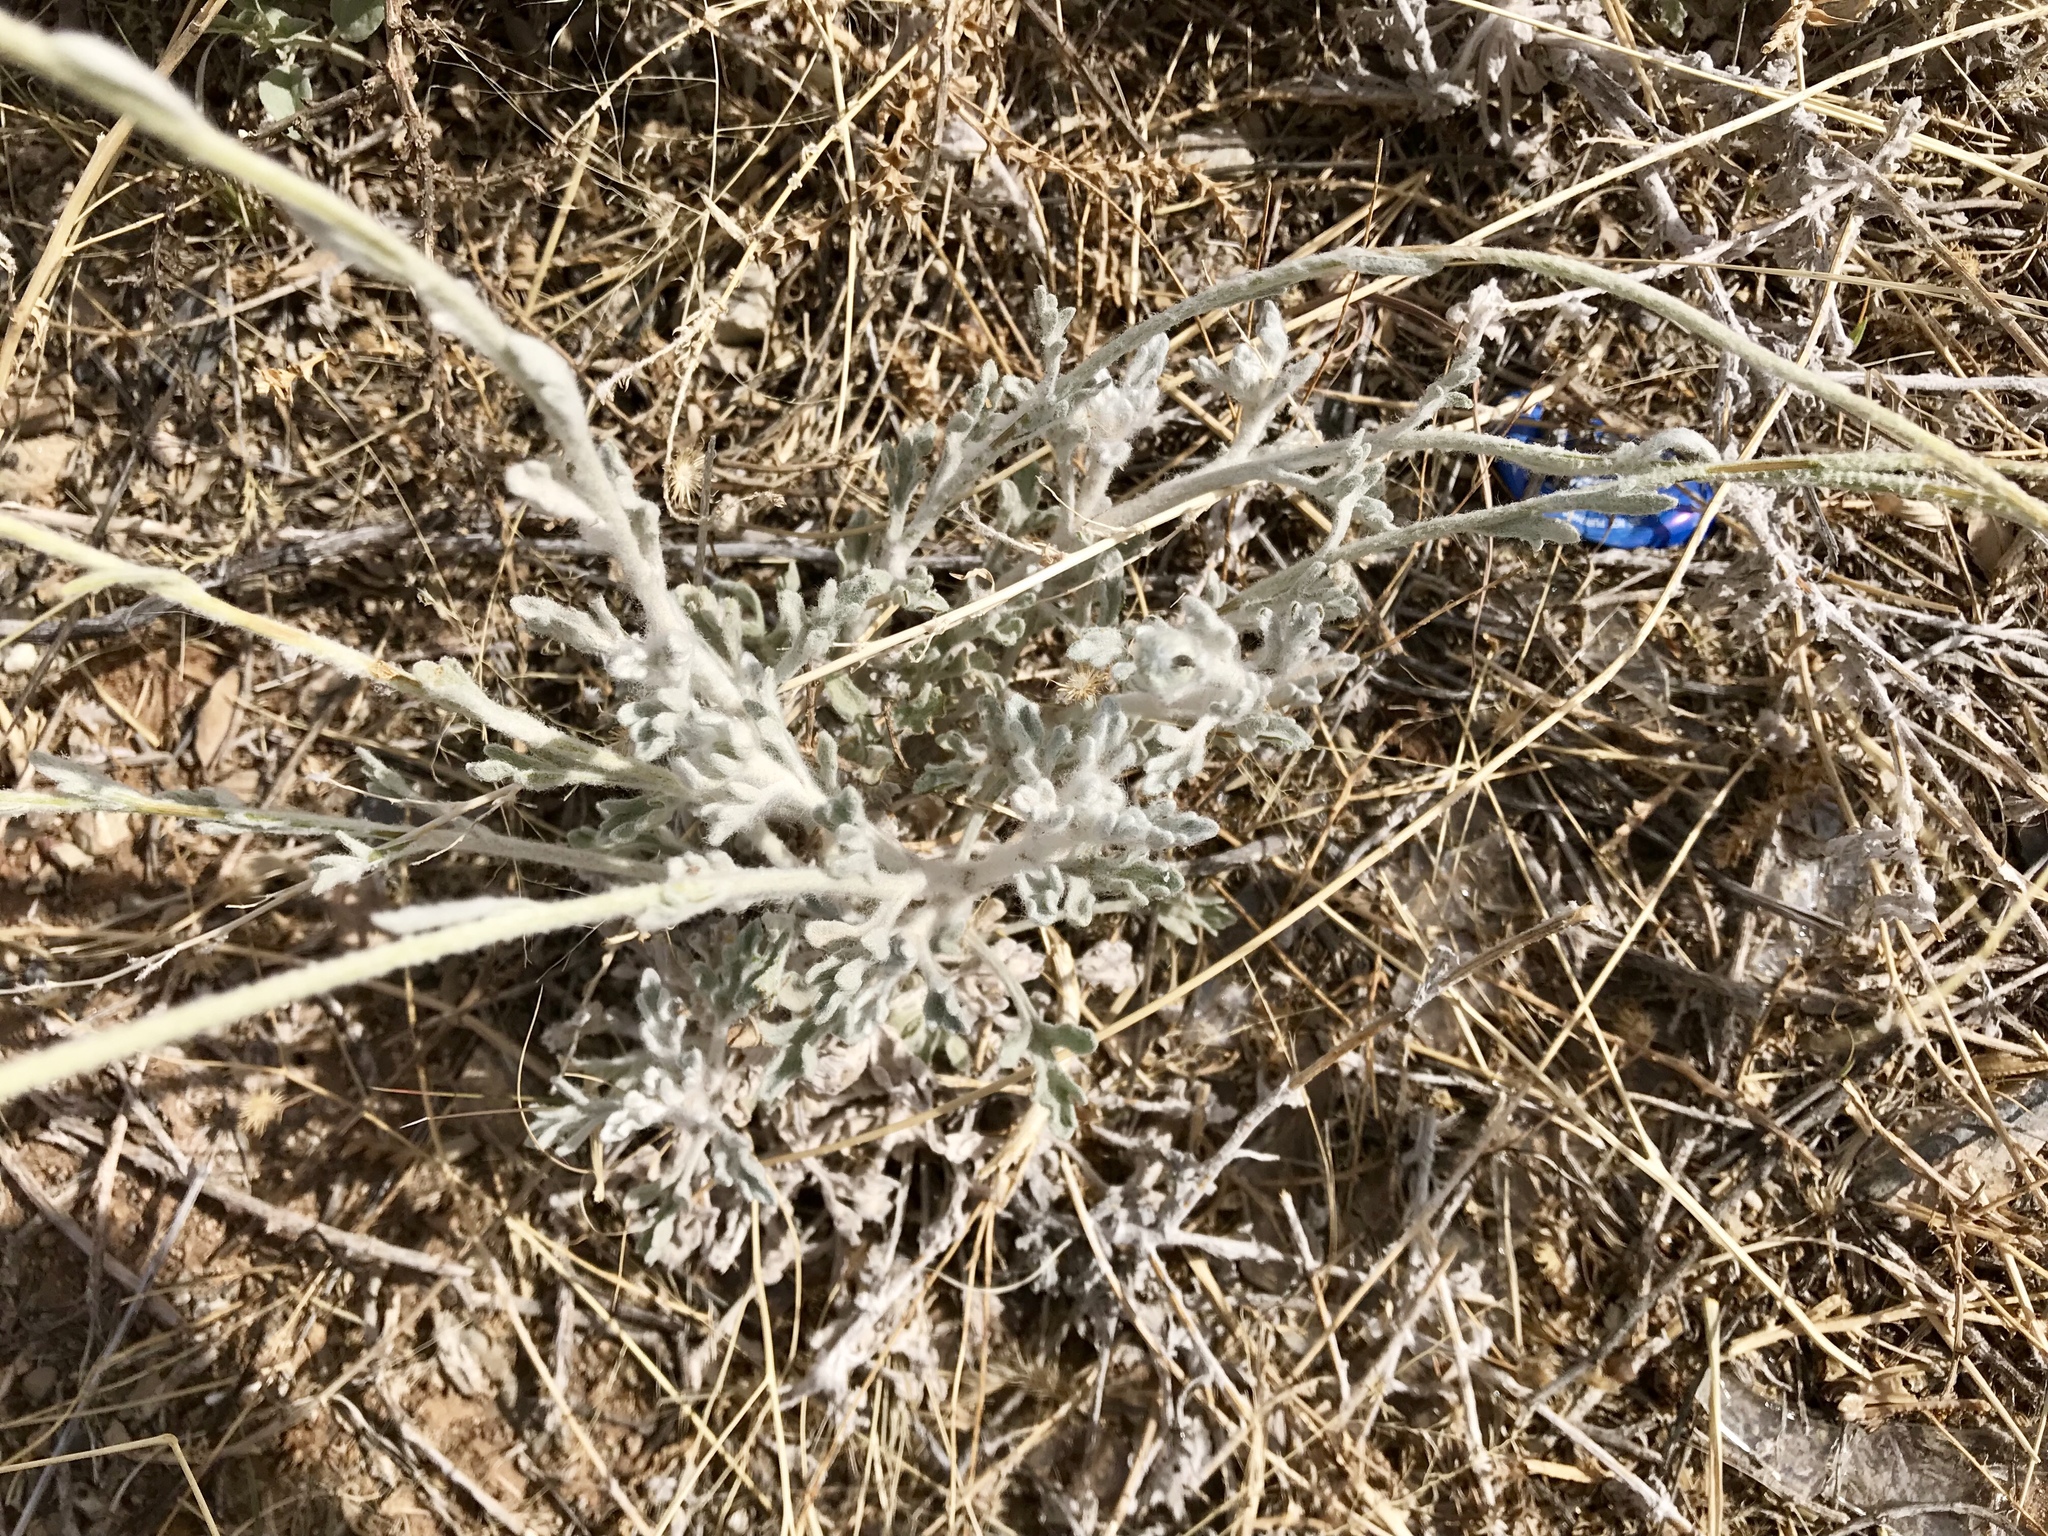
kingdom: Plantae
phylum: Tracheophyta
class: Magnoliopsida
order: Asterales
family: Asteraceae
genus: Baileya
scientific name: Baileya multiradiata
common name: Desert-marigold
